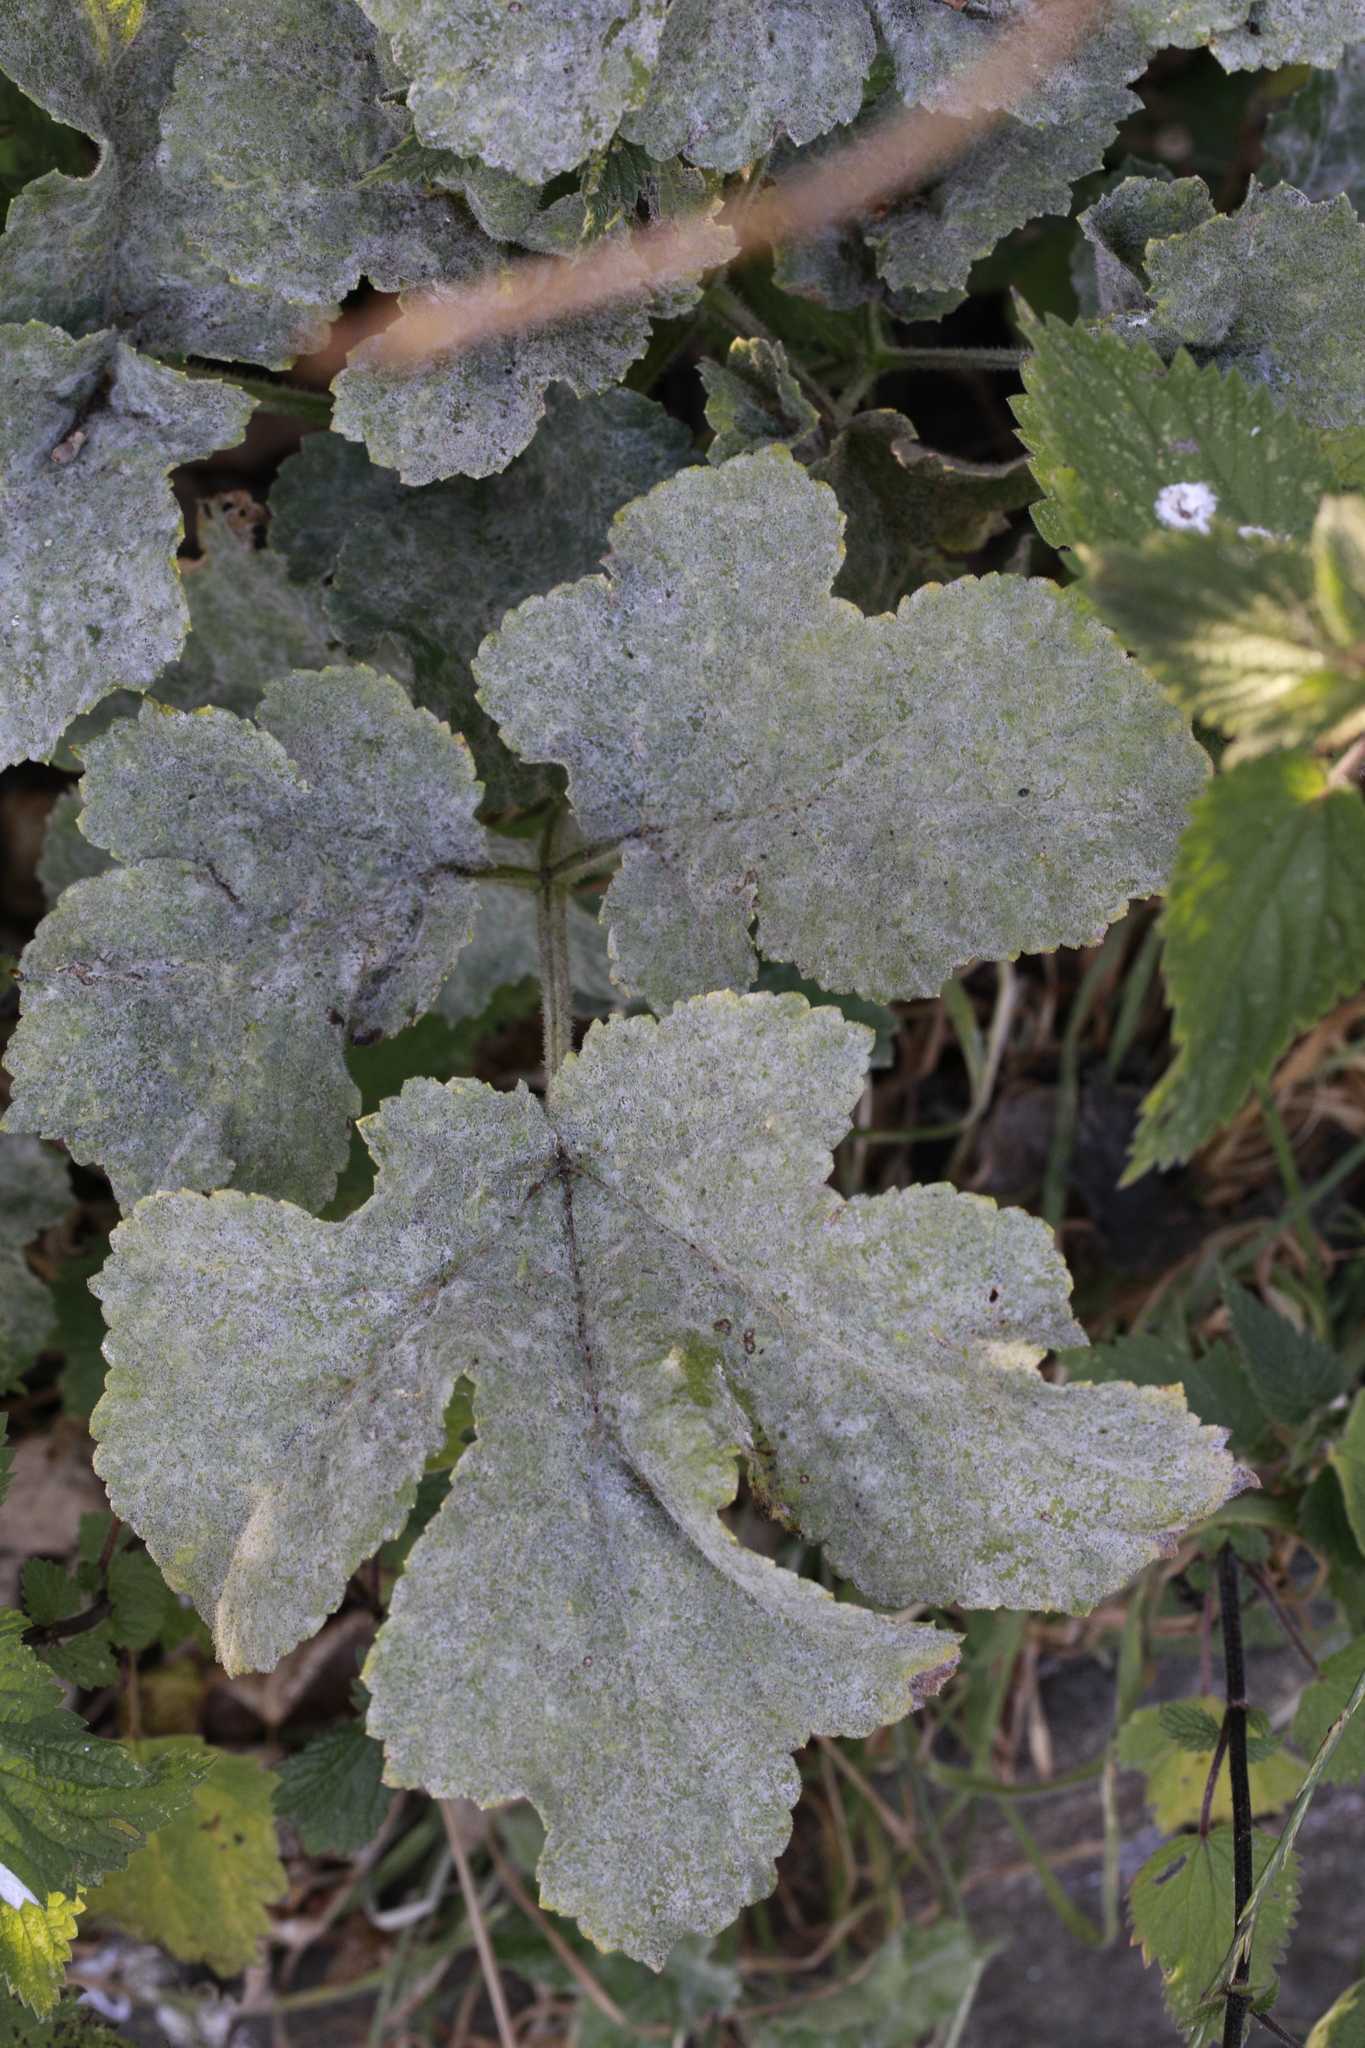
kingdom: Plantae
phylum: Tracheophyta
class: Magnoliopsida
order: Apiales
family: Apiaceae
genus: Heracleum
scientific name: Heracleum sphondylium
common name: Hogweed
